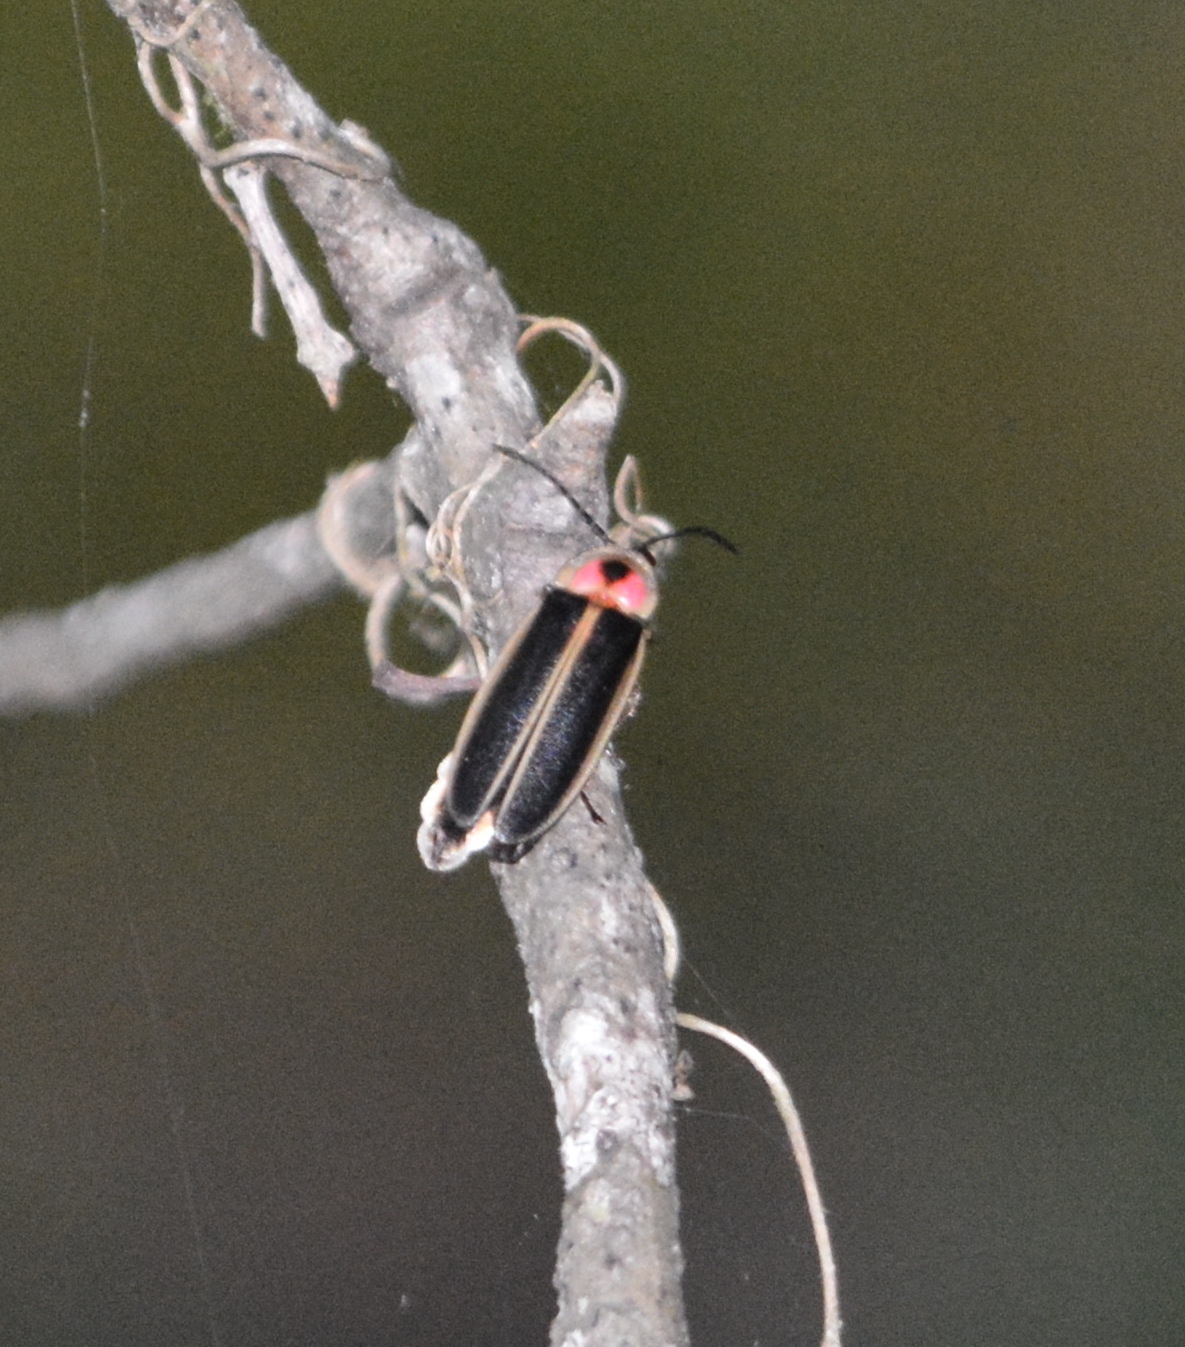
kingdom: Animalia
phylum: Arthropoda
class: Insecta
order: Coleoptera
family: Lampyridae
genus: Photinus
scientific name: Photinus pyralis
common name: Big dipper firefly
